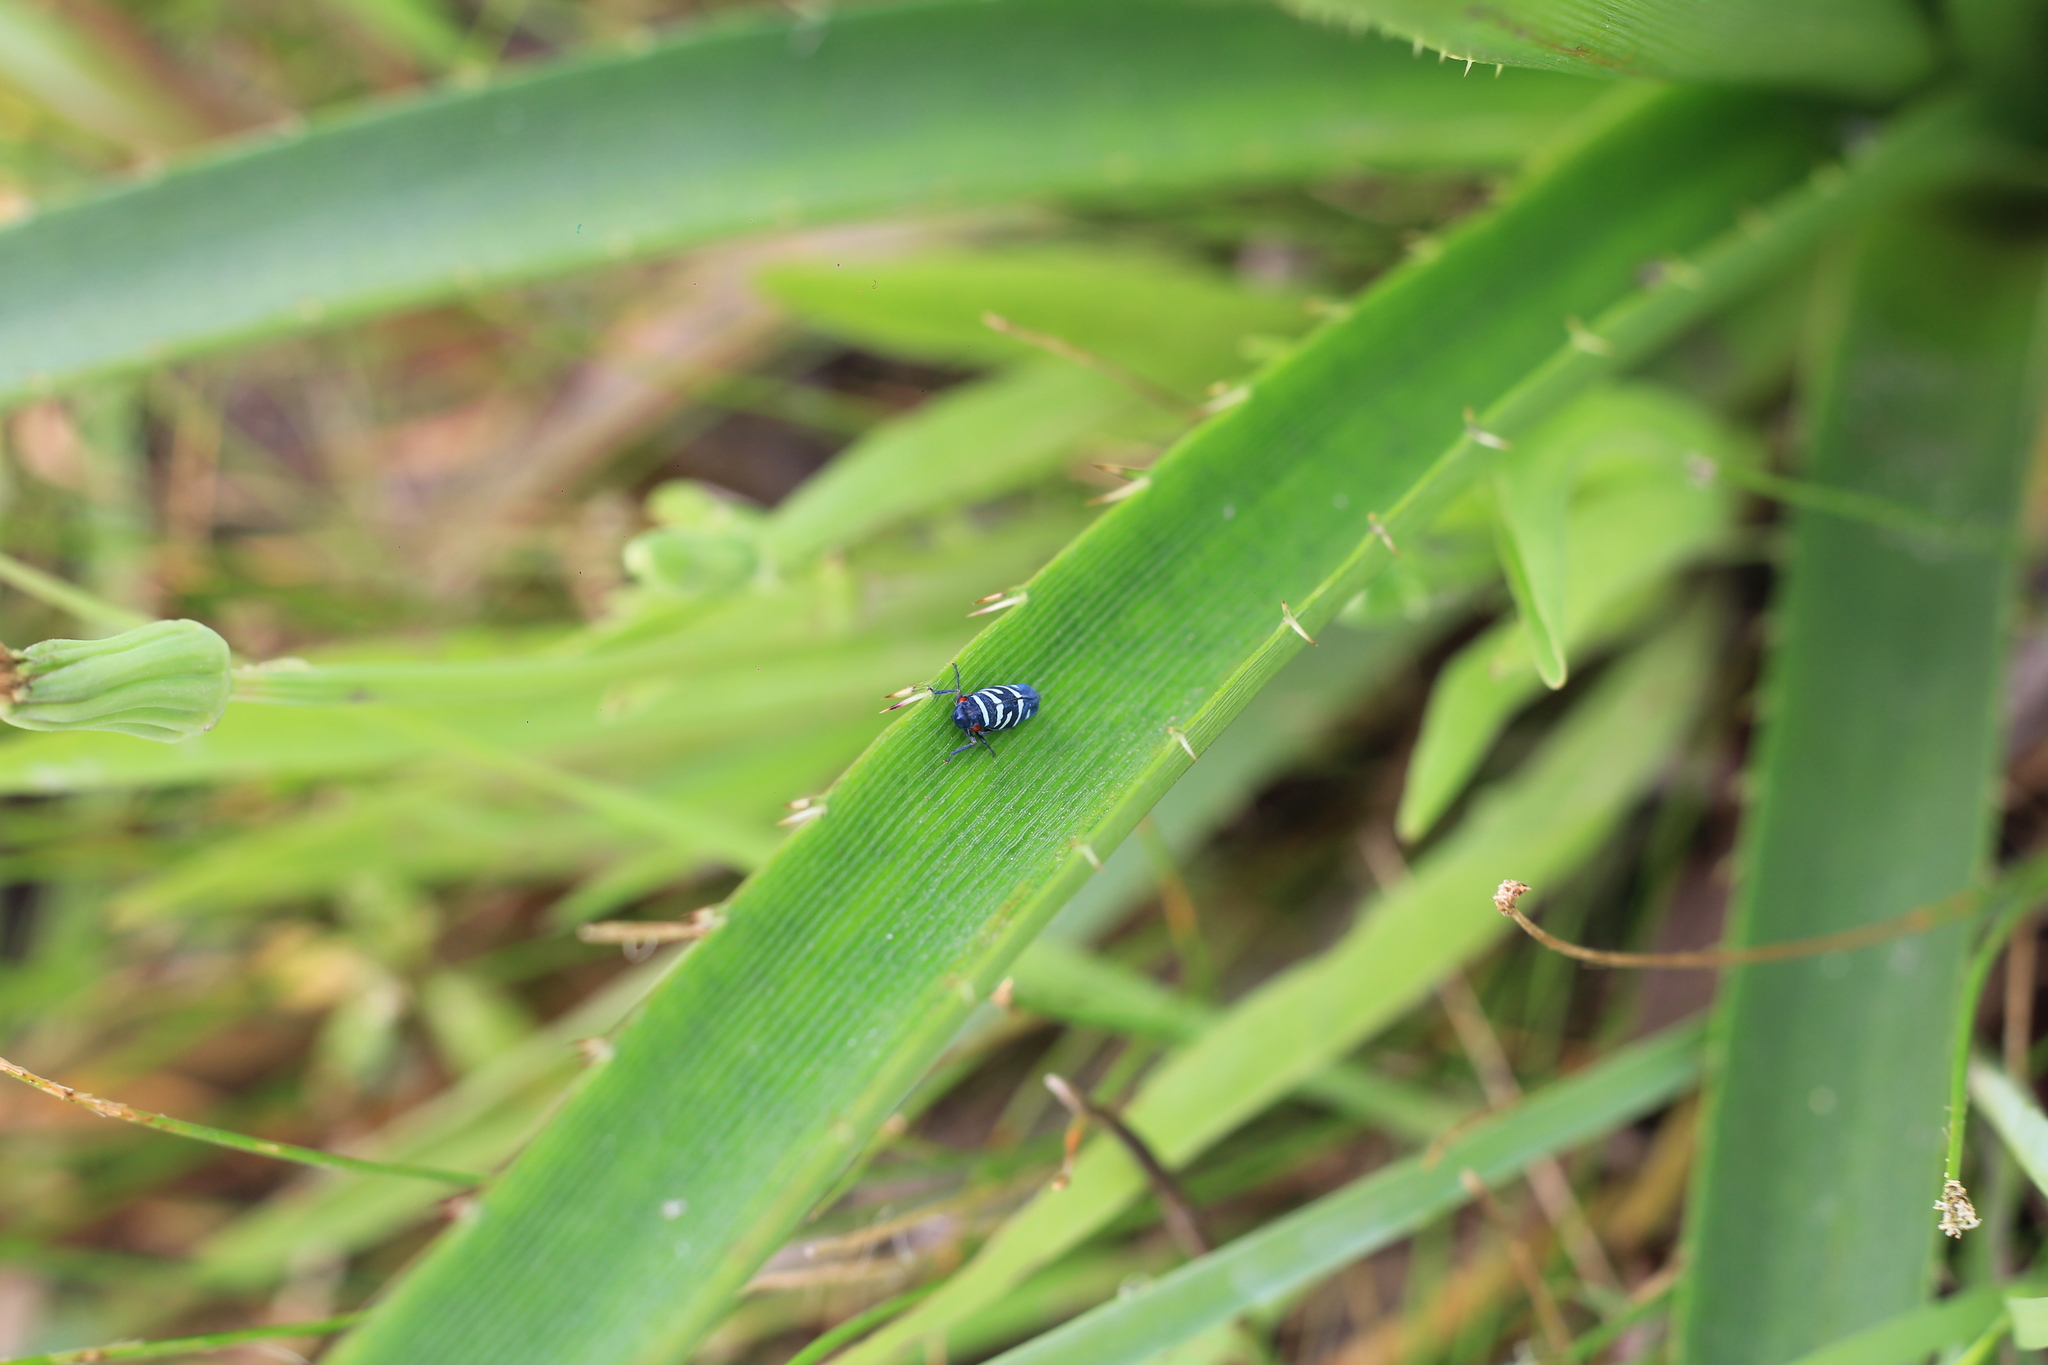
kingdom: Animalia
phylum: Arthropoda
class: Insecta
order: Hemiptera
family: Cicadellidae
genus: Balacha
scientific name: Balacha melanocephala
